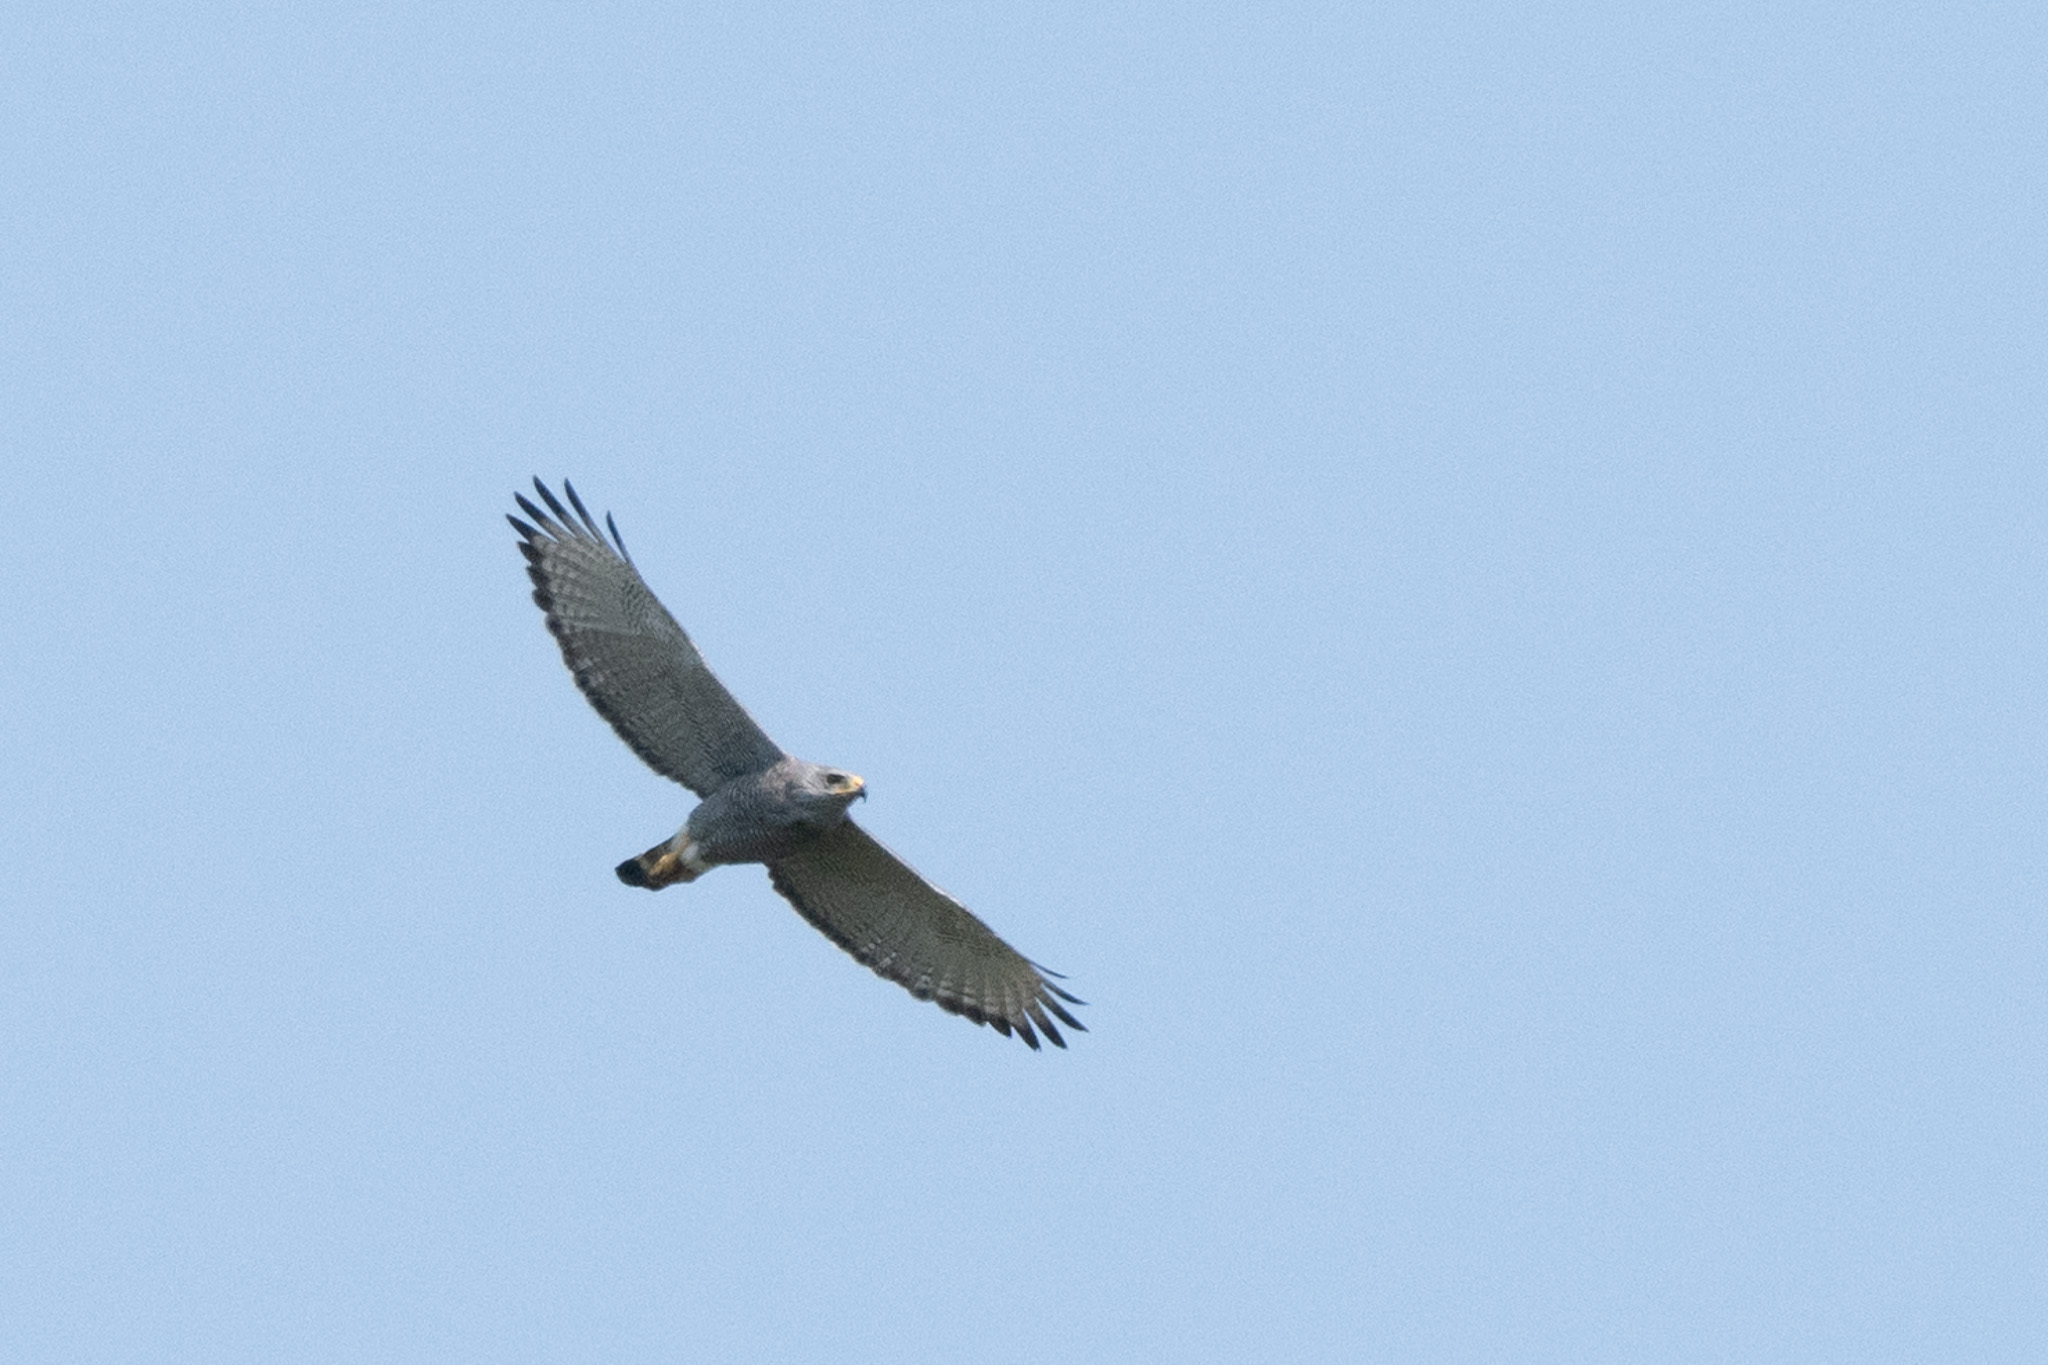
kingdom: Animalia
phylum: Chordata
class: Aves
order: Accipitriformes
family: Accipitridae
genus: Buteo
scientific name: Buteo nitidus
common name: Grey-lined hawk
